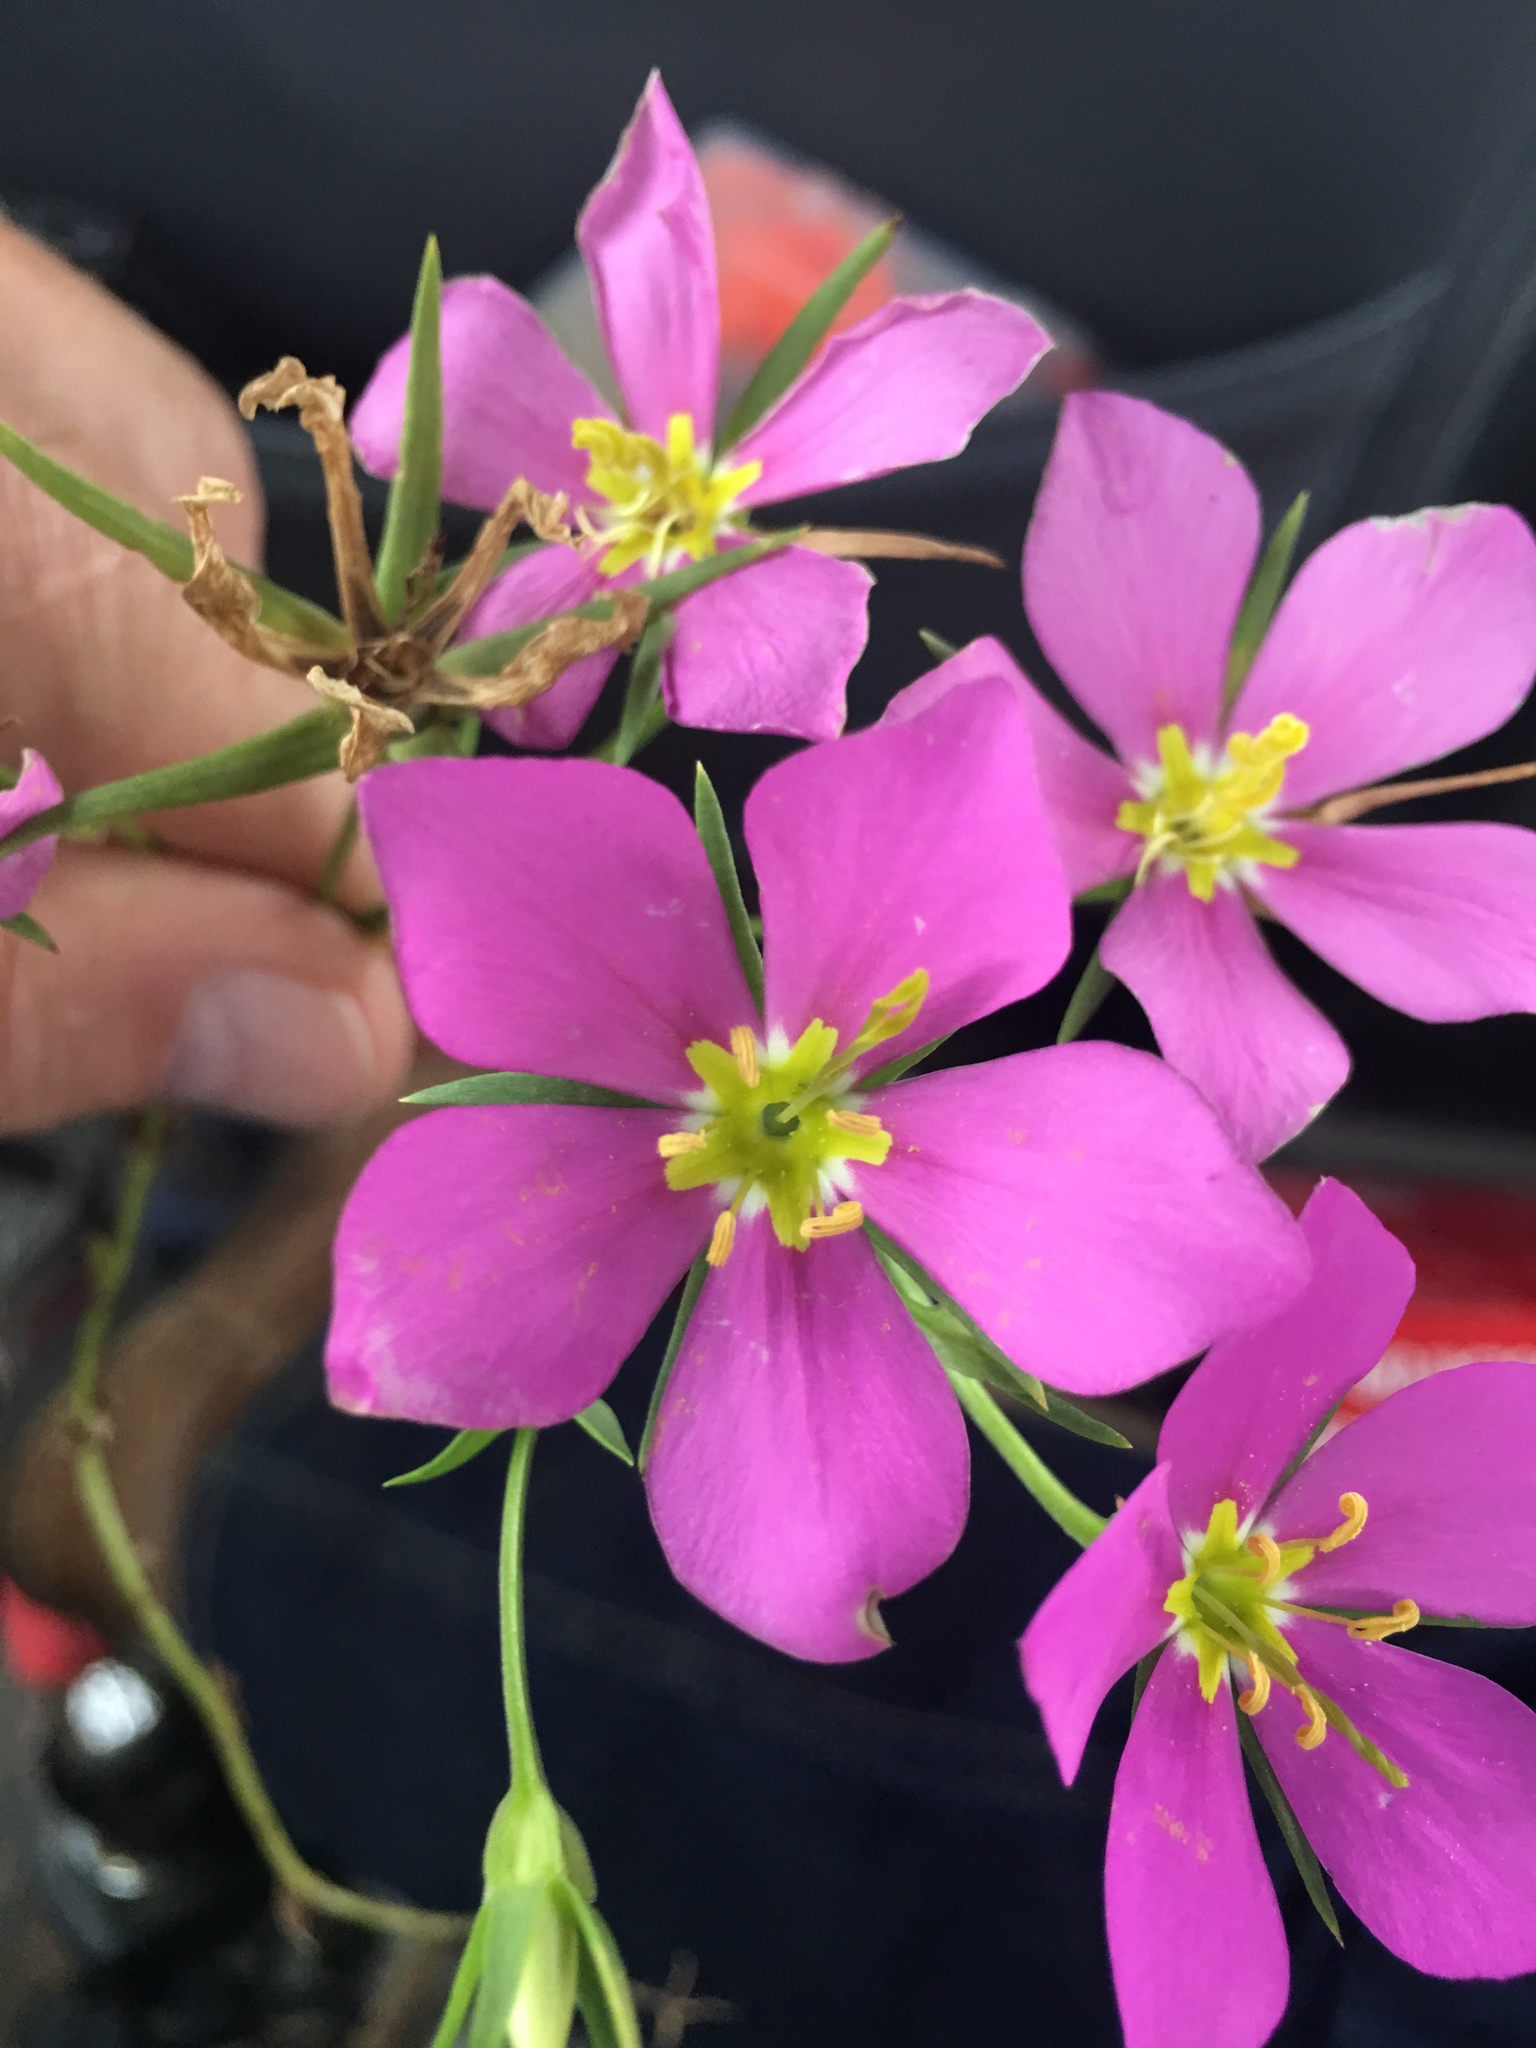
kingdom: Plantae
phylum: Tracheophyta
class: Magnoliopsida
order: Gentianales
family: Gentianaceae
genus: Sabatia
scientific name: Sabatia campestris
